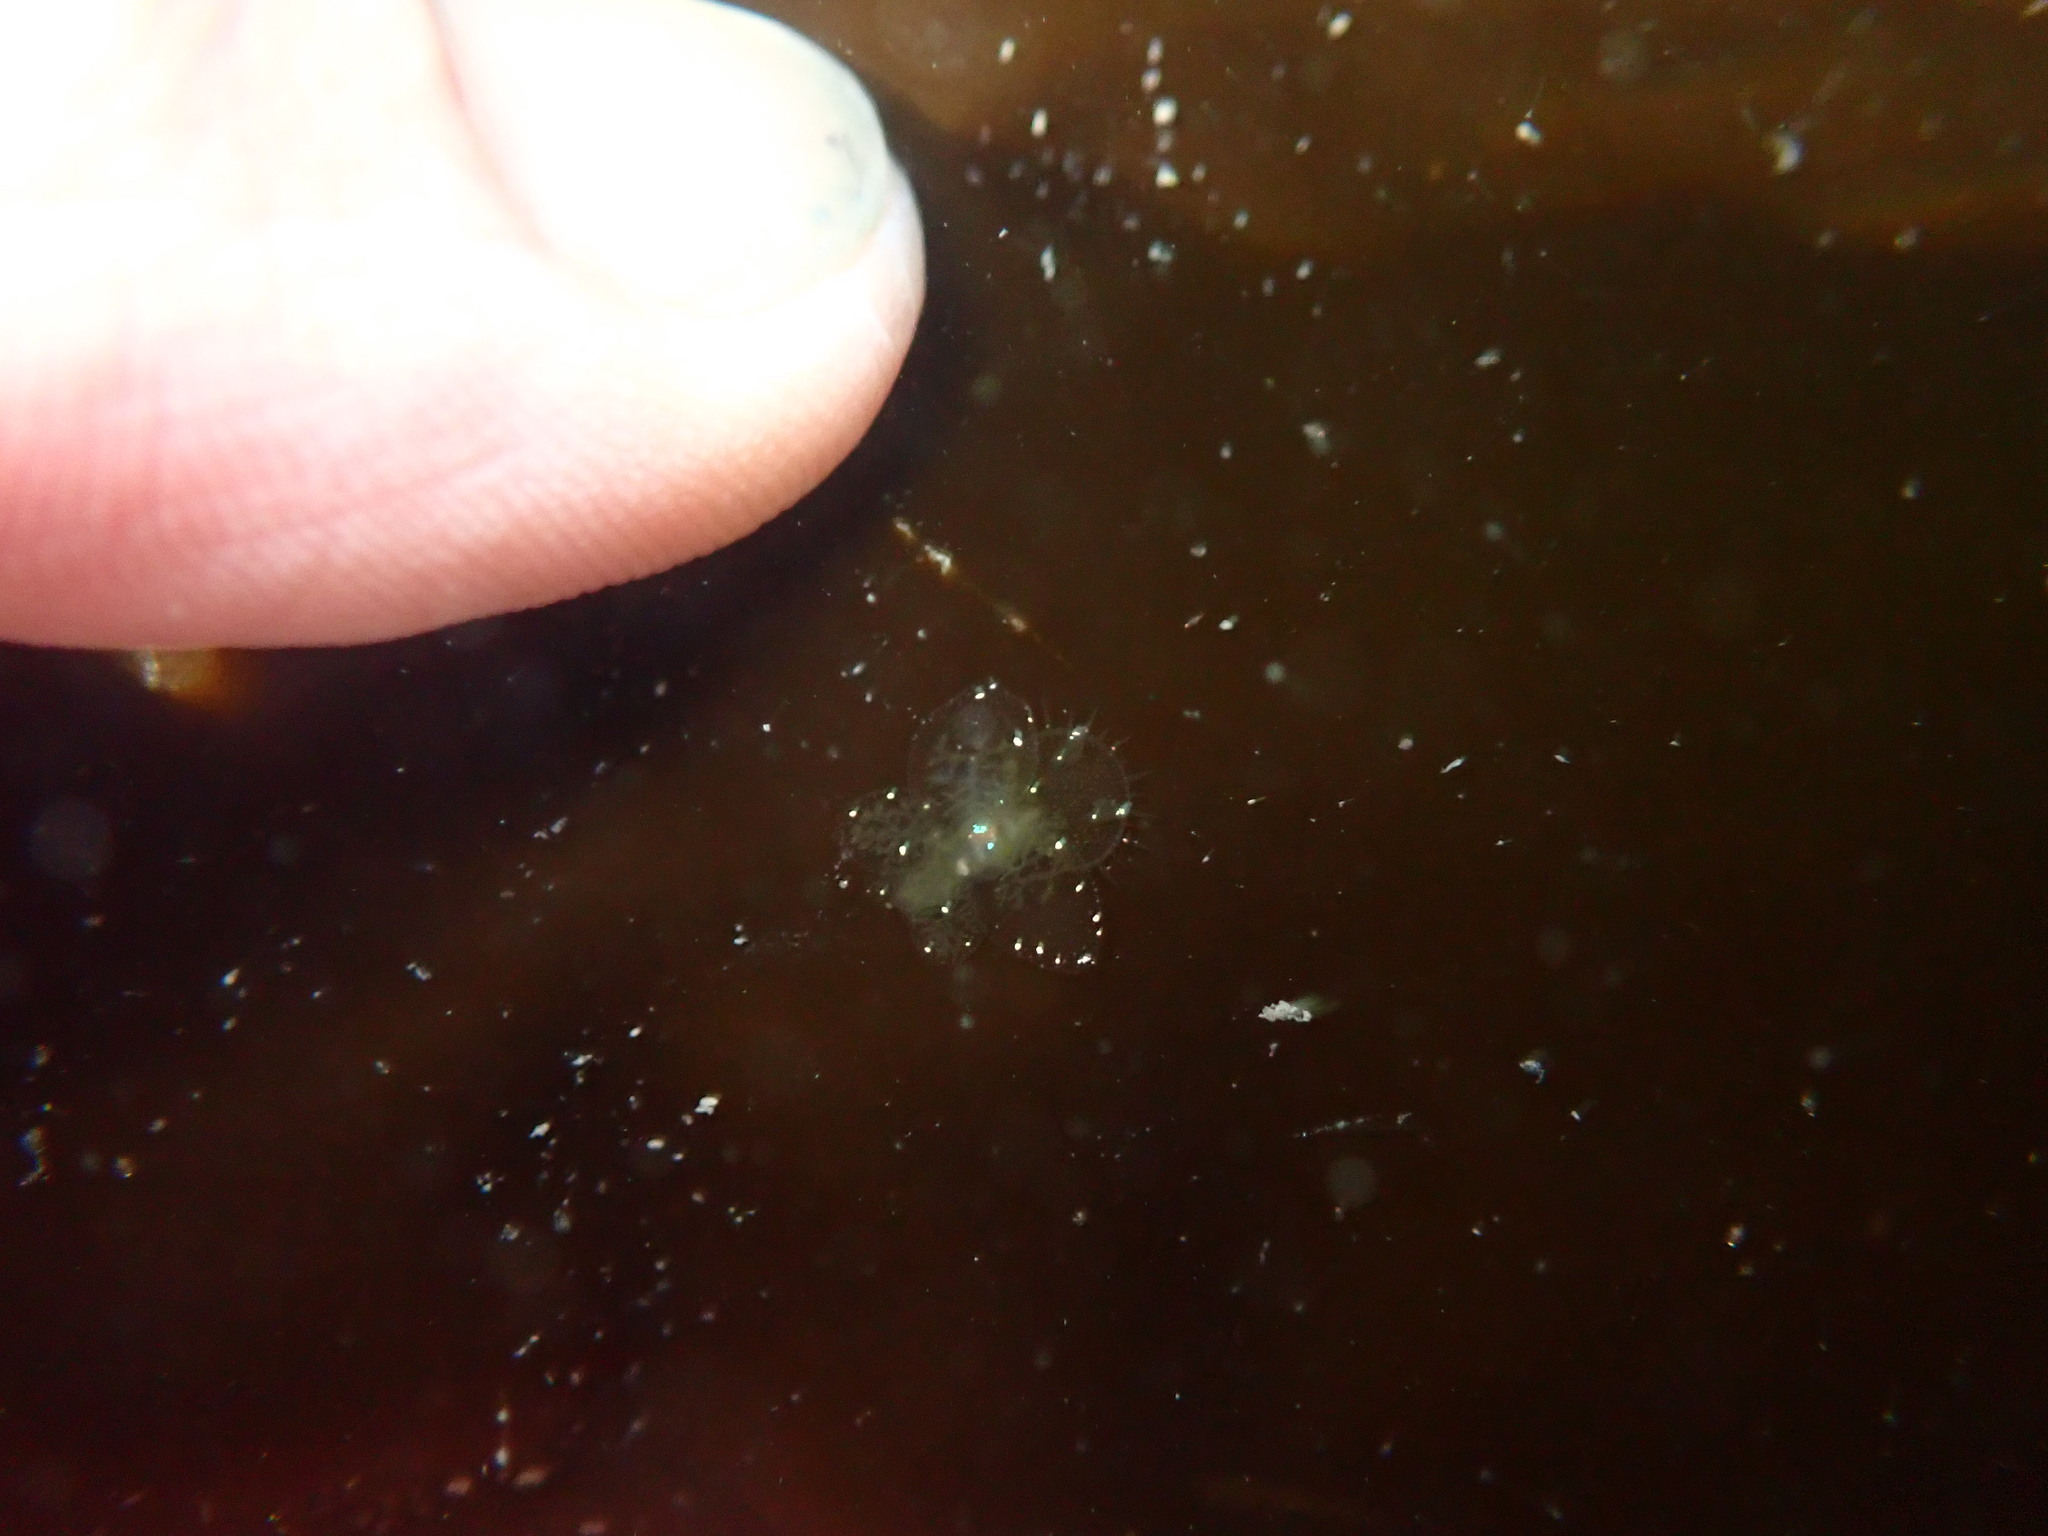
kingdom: Animalia
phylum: Mollusca
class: Gastropoda
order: Nudibranchia
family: Tethydidae
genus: Melibe
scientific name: Melibe leonina
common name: Lion nudibranch
